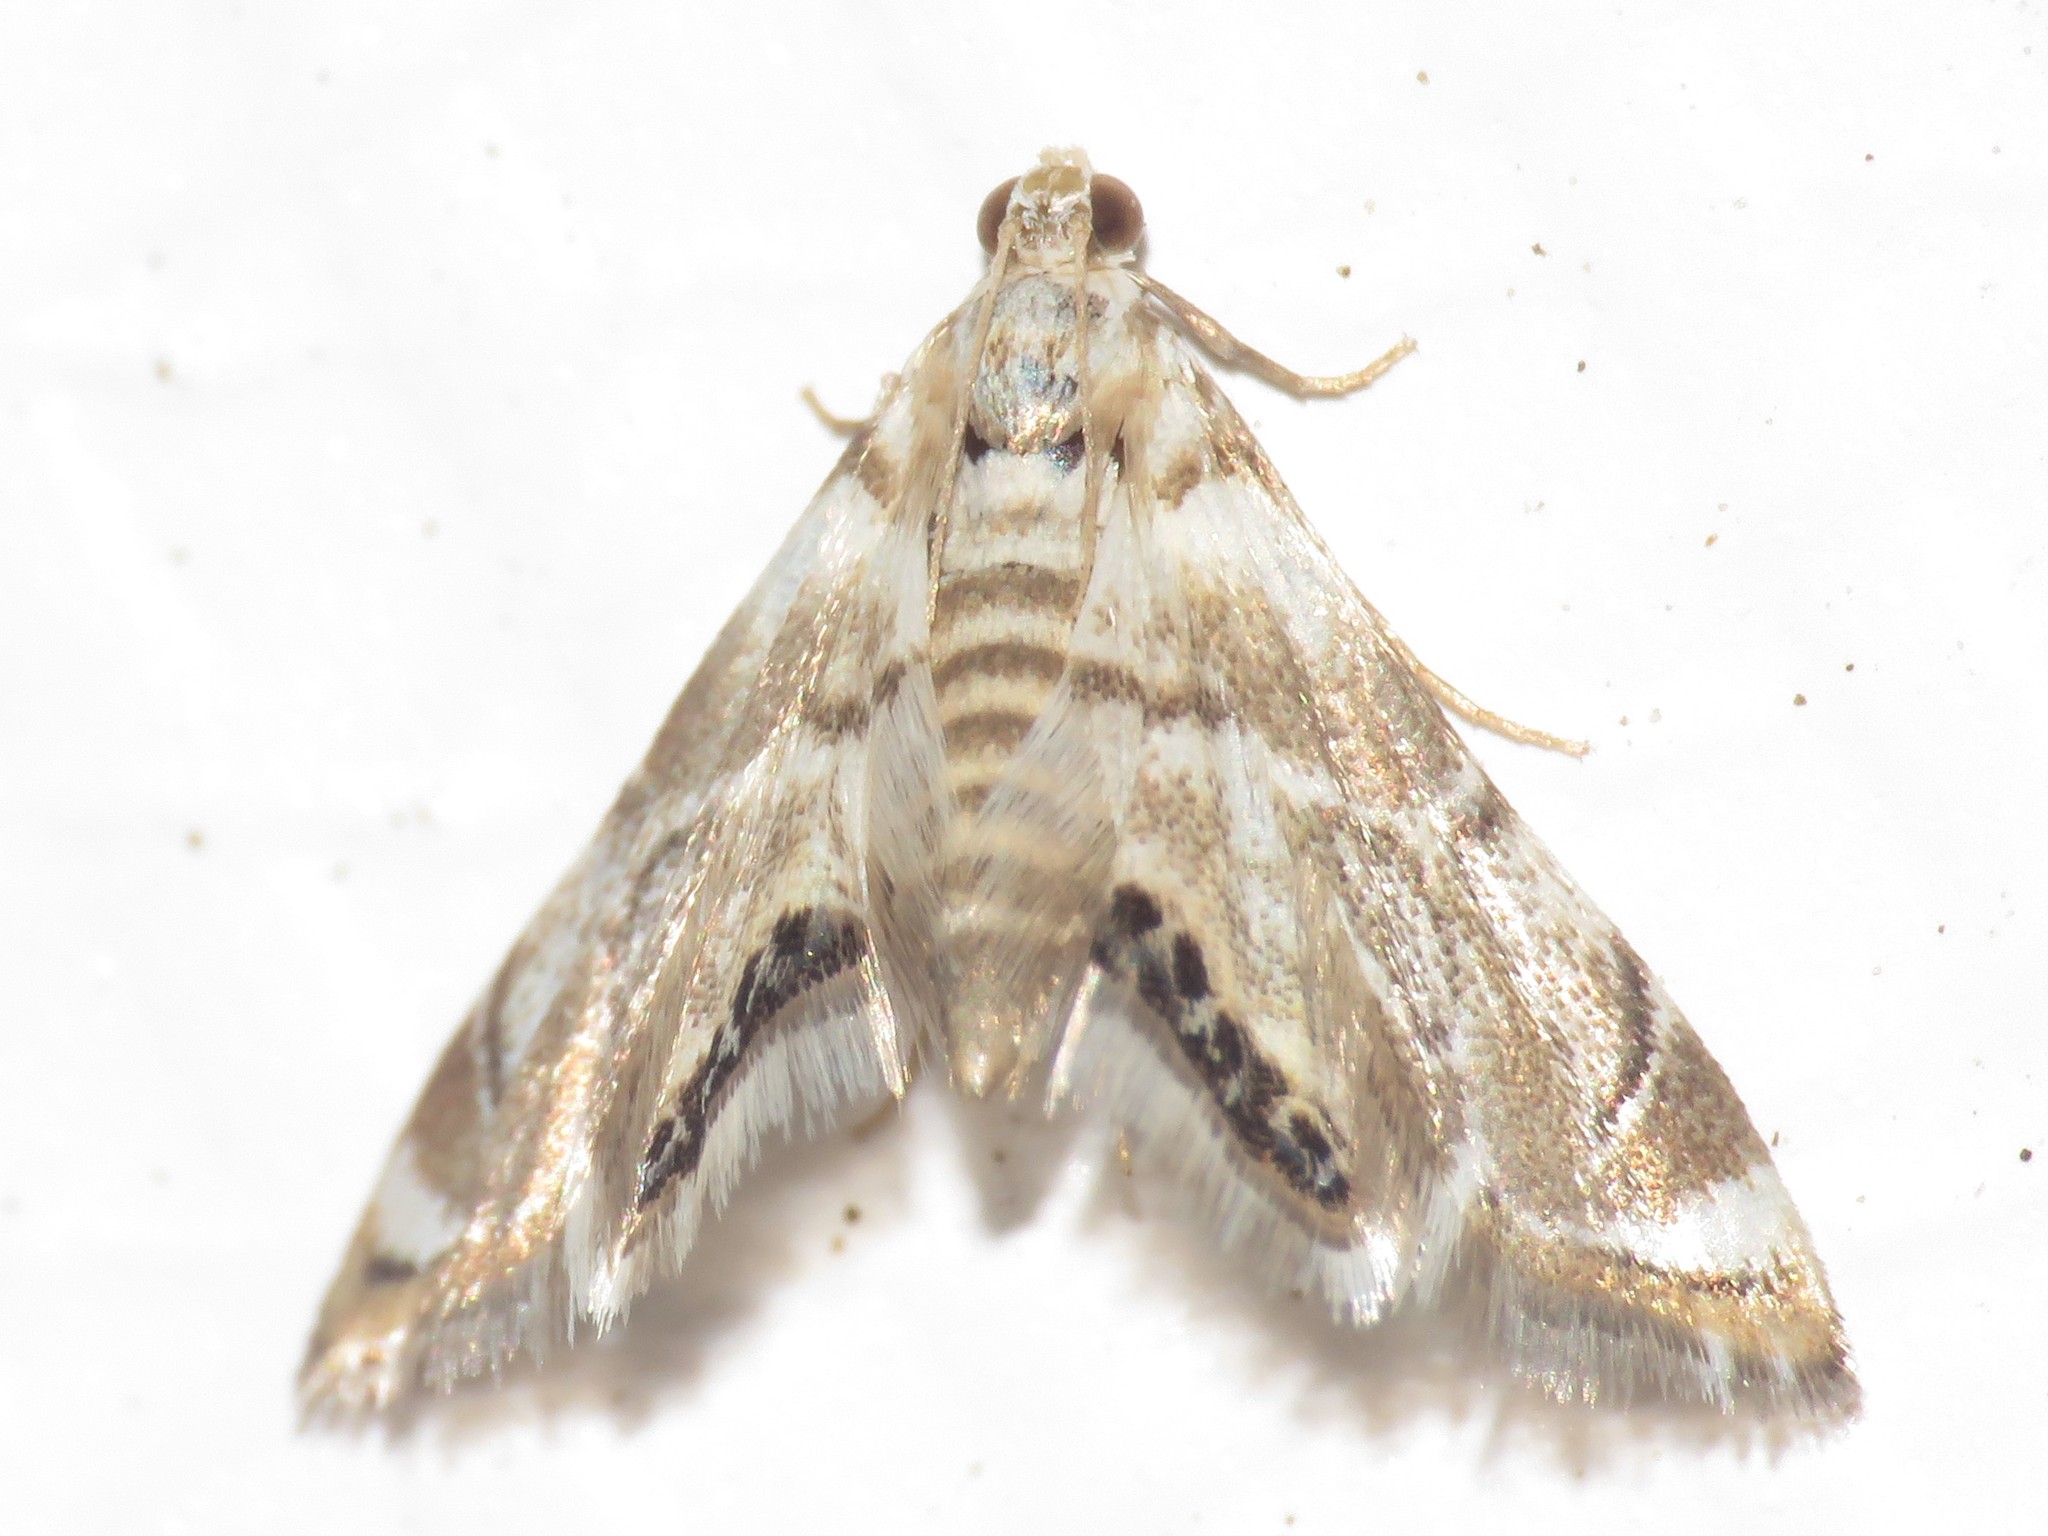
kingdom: Animalia
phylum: Arthropoda
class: Insecta
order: Lepidoptera
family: Crambidae
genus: Eoparargyractis
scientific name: Eoparargyractis plevie
